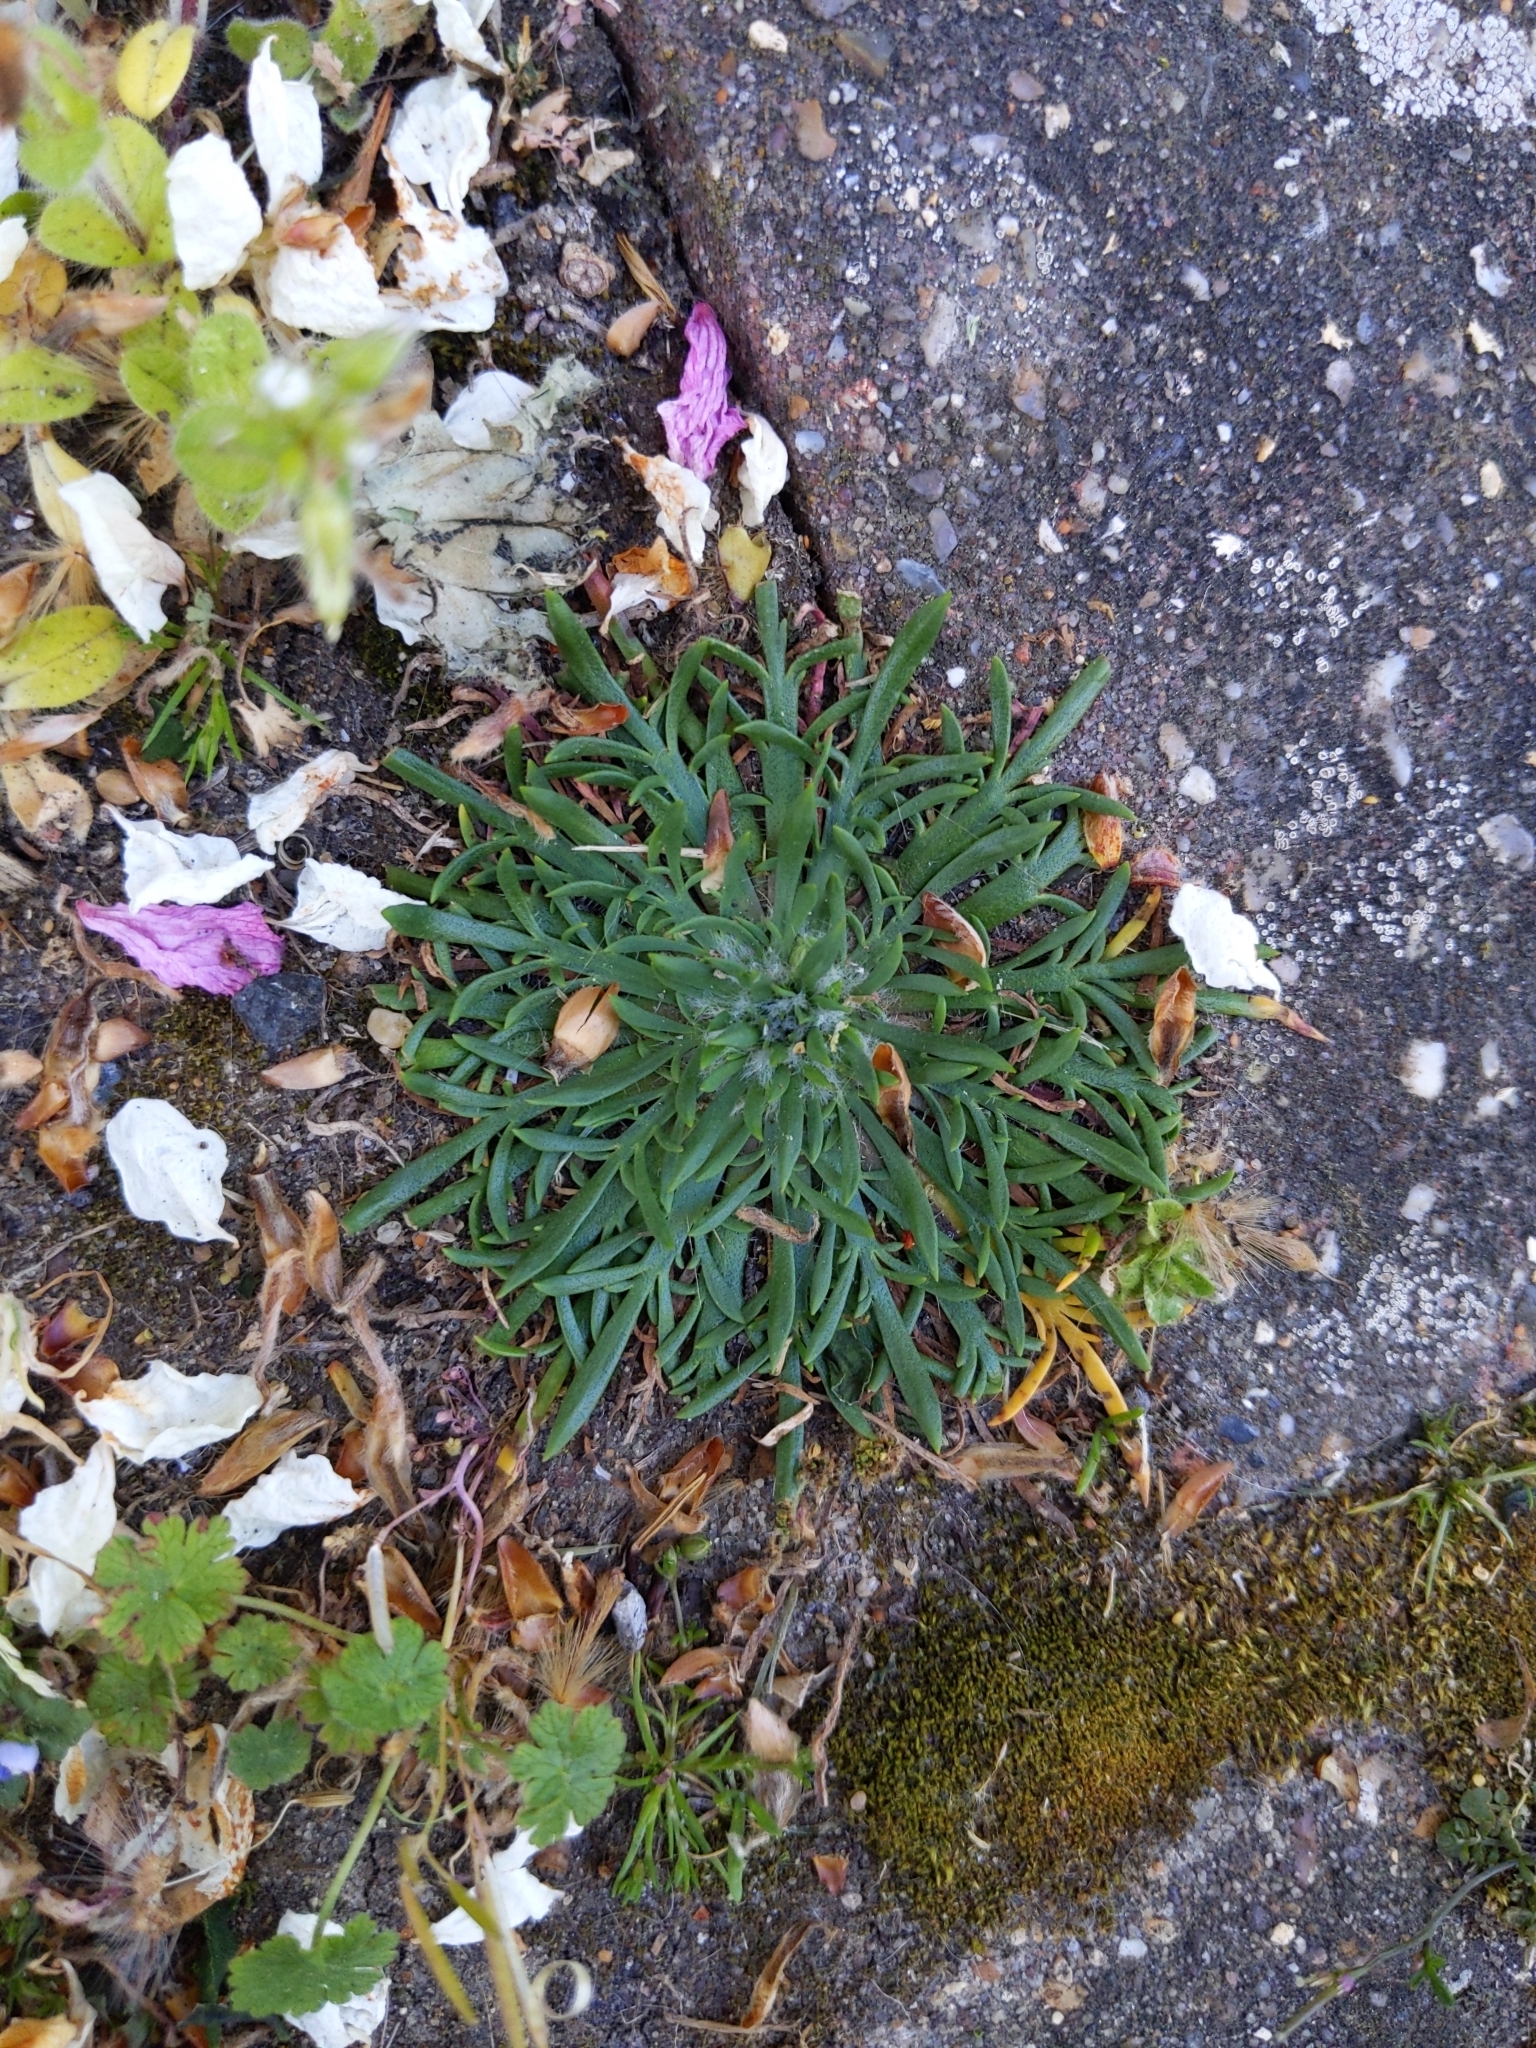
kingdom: Plantae
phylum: Tracheophyta
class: Magnoliopsida
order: Lamiales
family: Plantaginaceae
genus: Plantago
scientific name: Plantago coronopus
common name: Buck's-horn plantain
